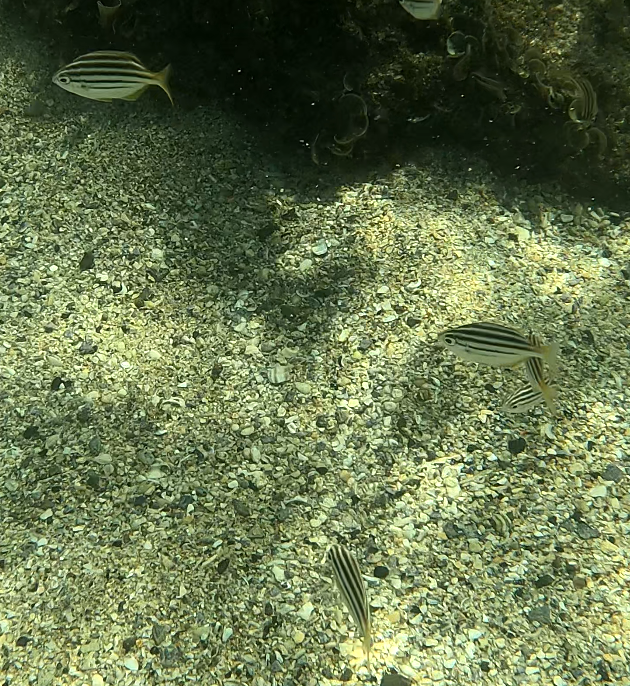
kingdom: Animalia
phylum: Chordata
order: Perciformes
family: Kyphosidae
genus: Atypichthys
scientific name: Atypichthys strigatus
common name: Australian mado
